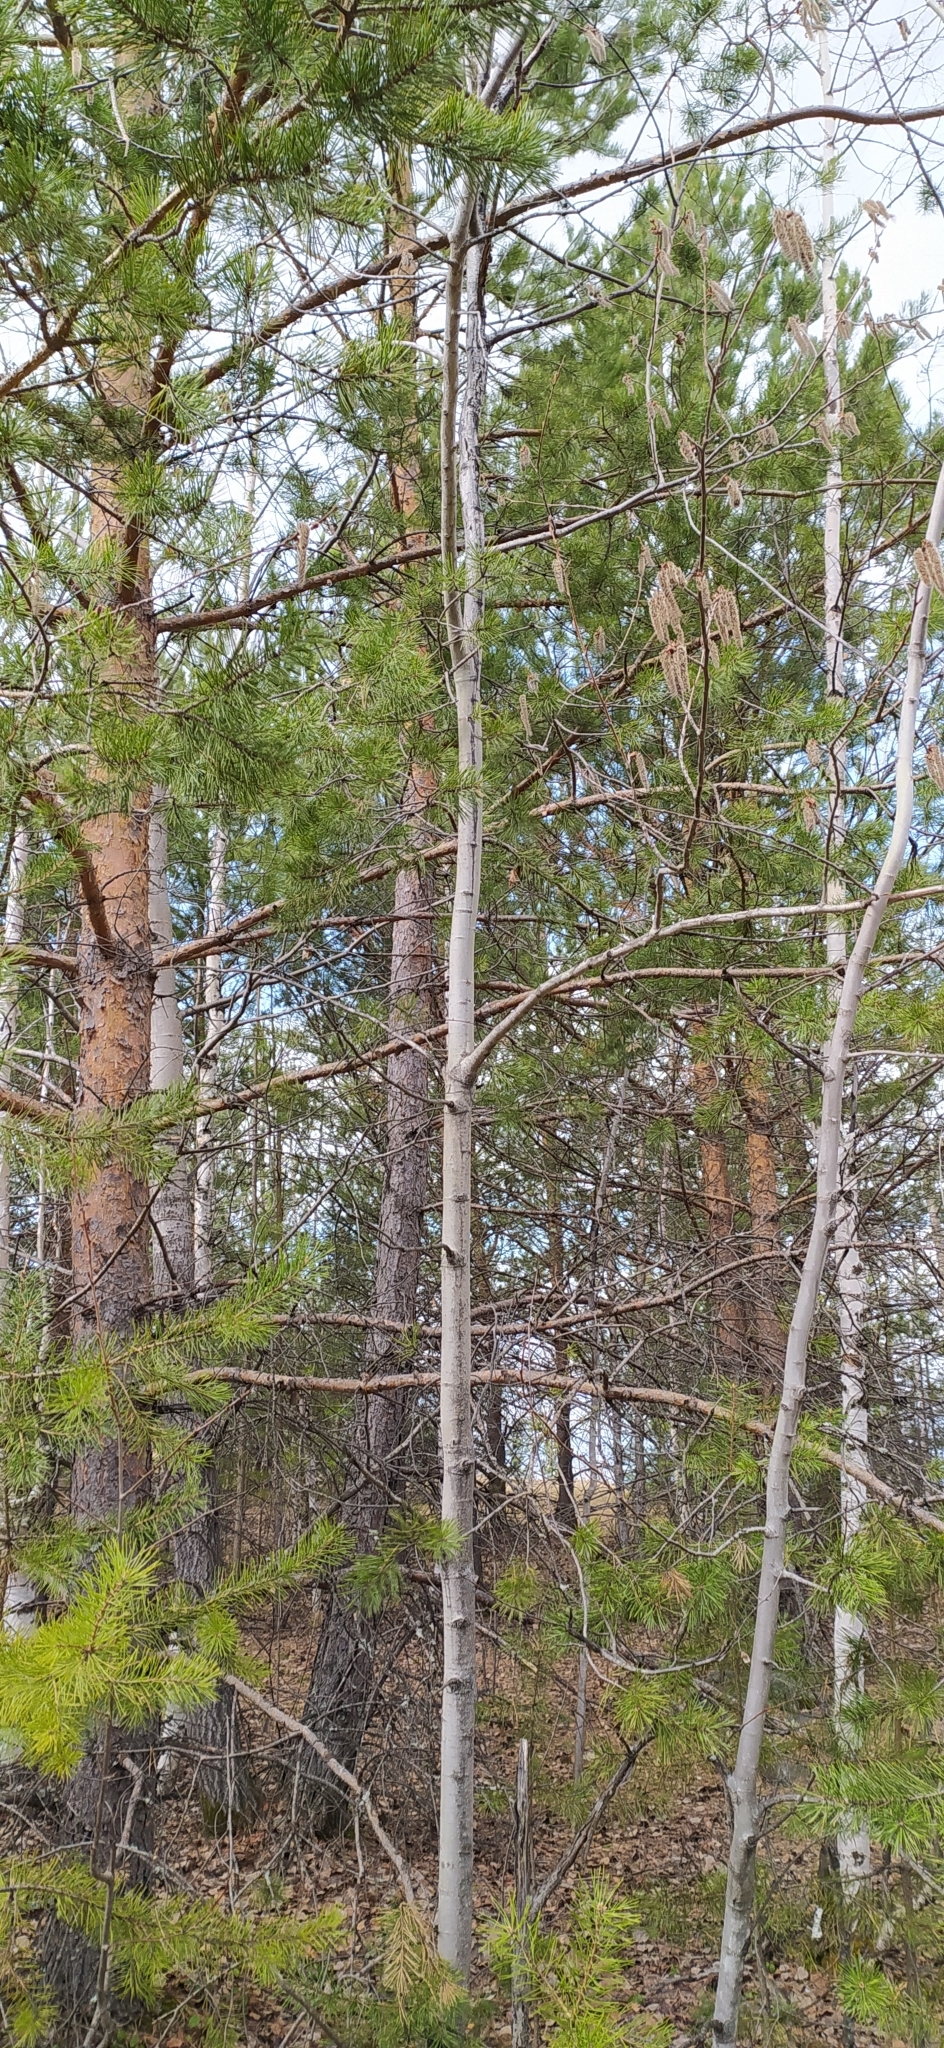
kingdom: Plantae
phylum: Tracheophyta
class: Magnoliopsida
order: Malpighiales
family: Salicaceae
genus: Populus
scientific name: Populus tremula
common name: European aspen
